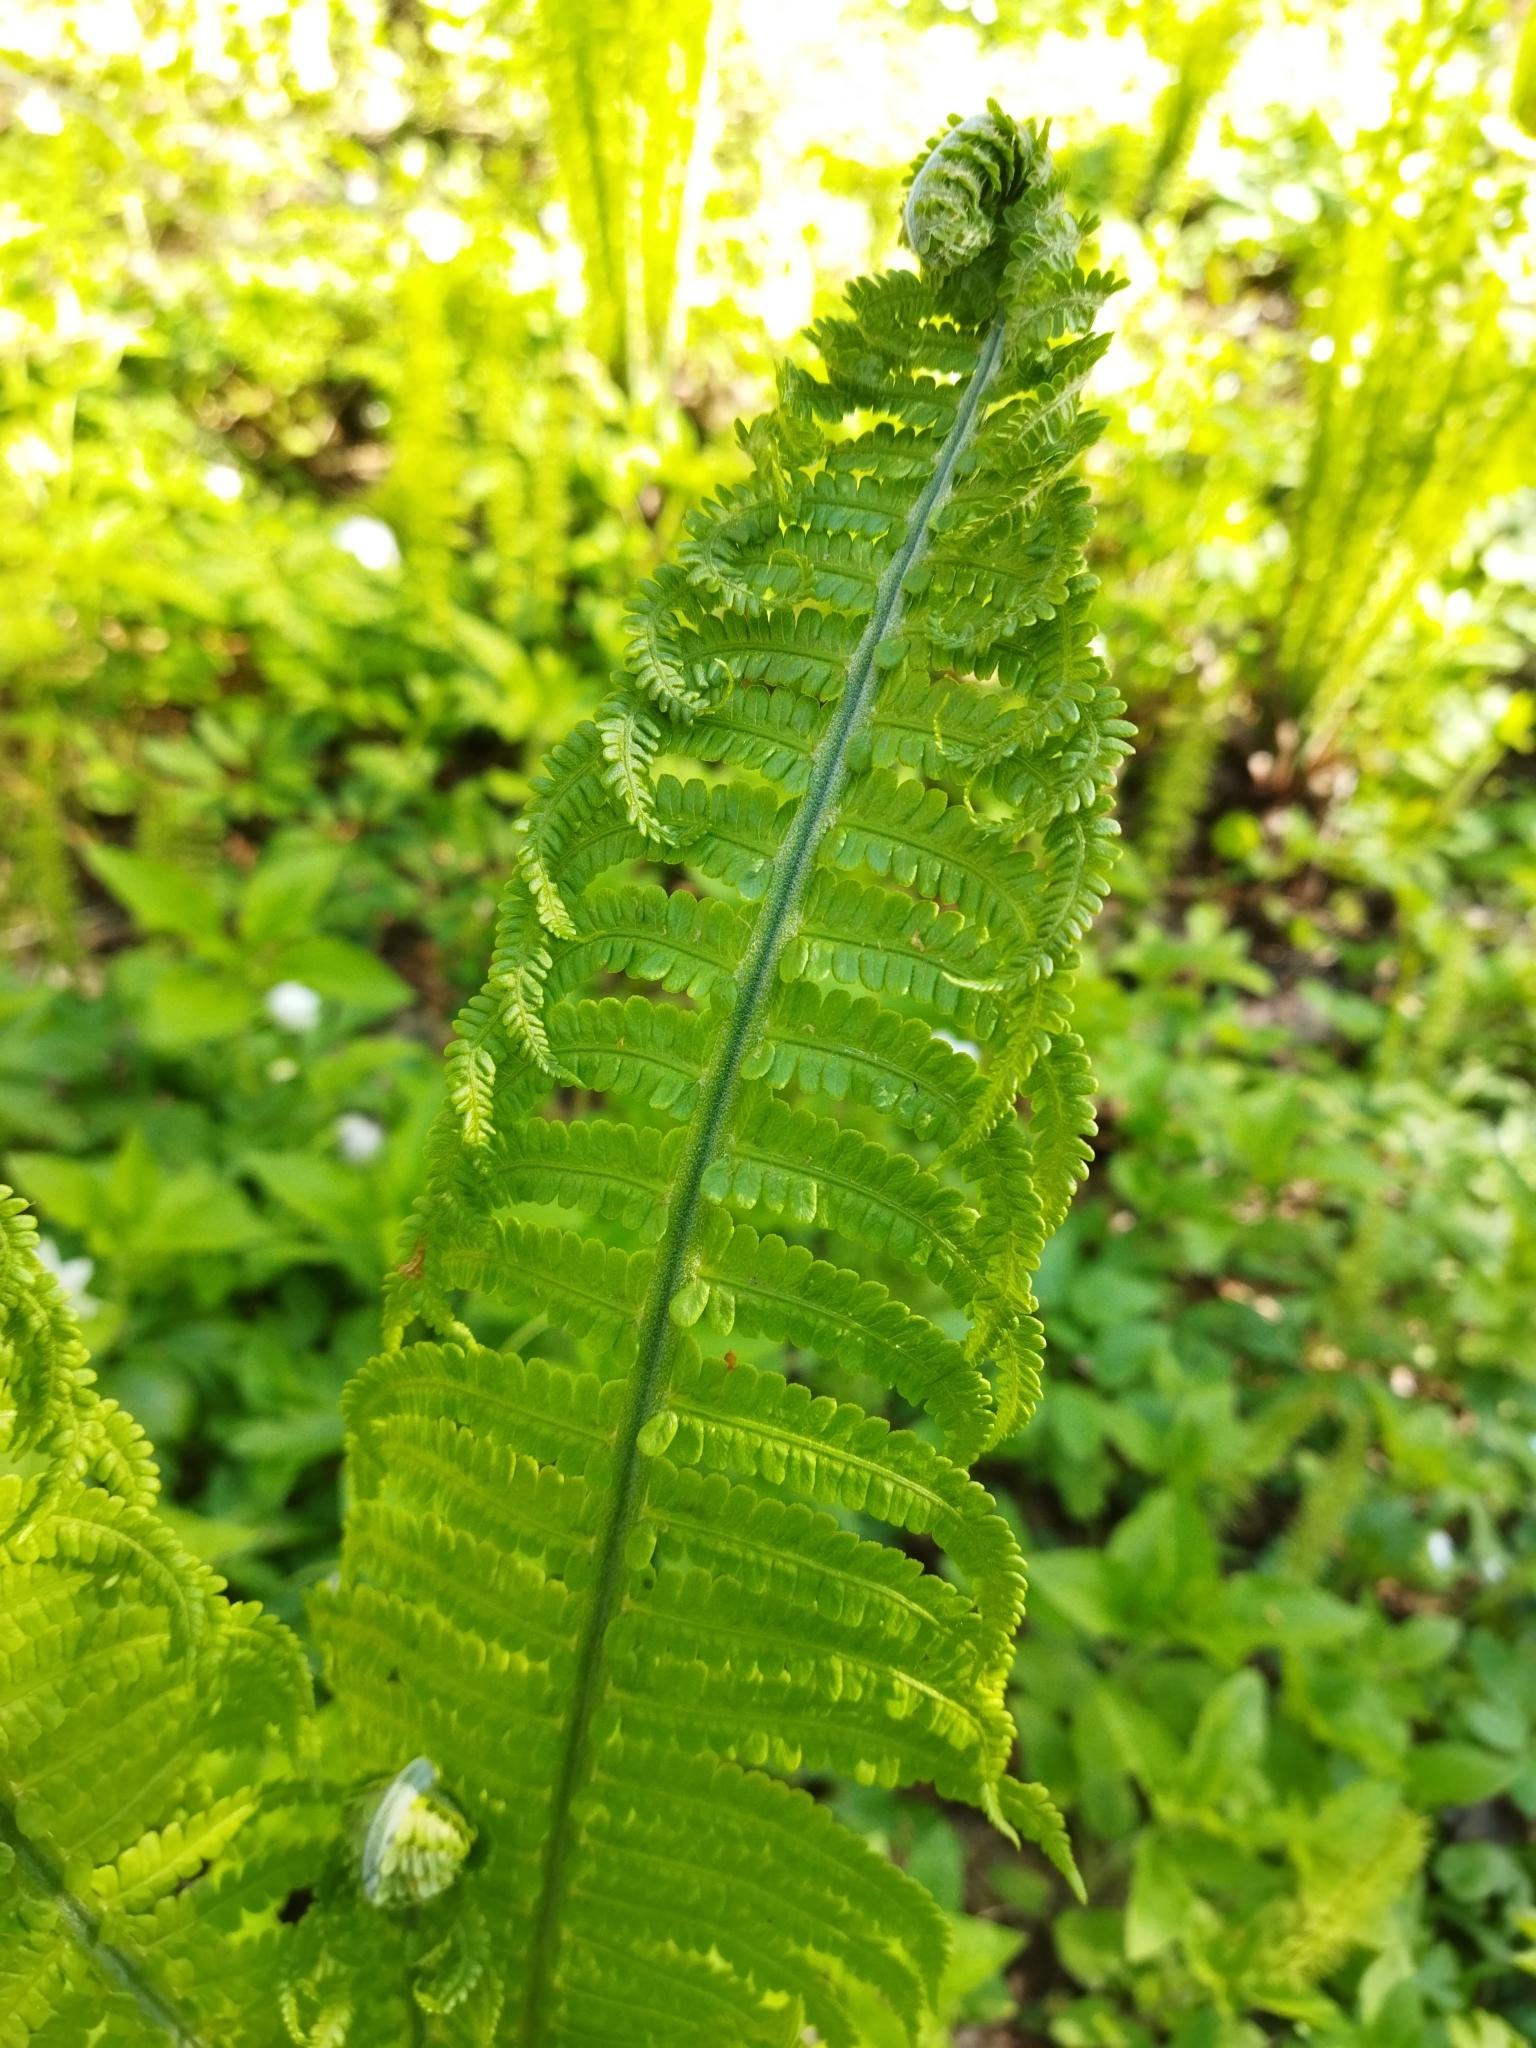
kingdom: Plantae
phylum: Tracheophyta
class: Polypodiopsida
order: Polypodiales
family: Onocleaceae
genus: Matteuccia
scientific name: Matteuccia struthiopteris
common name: Ostrich fern
